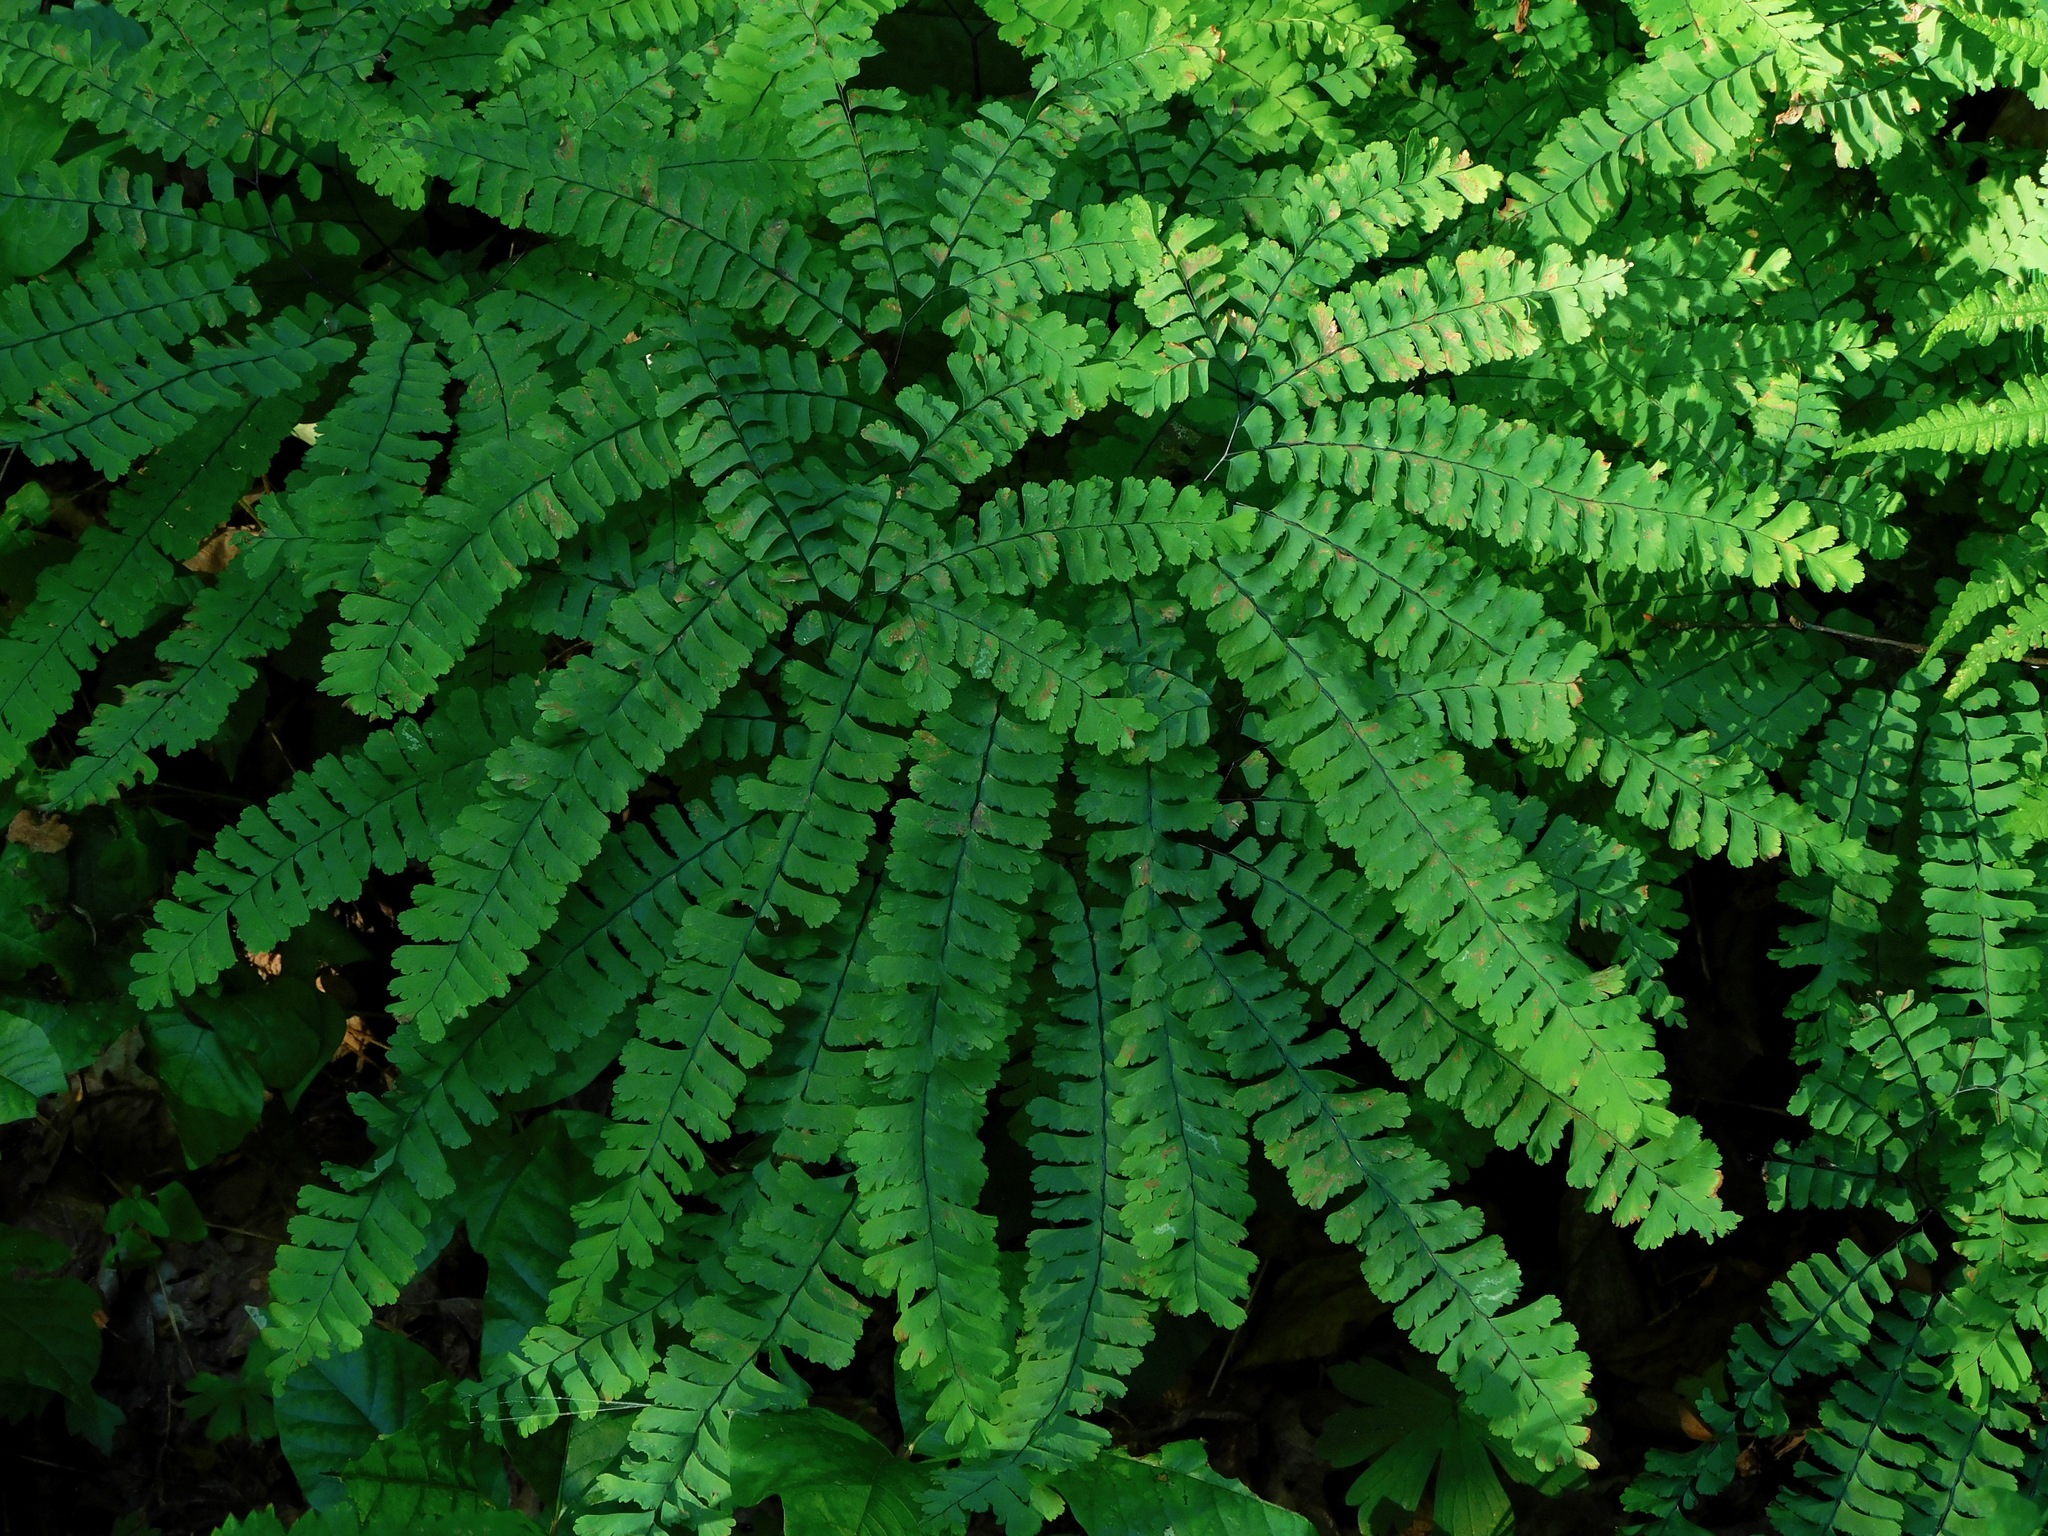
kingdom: Plantae
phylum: Tracheophyta
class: Polypodiopsida
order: Polypodiales
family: Pteridaceae
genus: Adiantum
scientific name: Adiantum pedatum
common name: Five-finger fern
